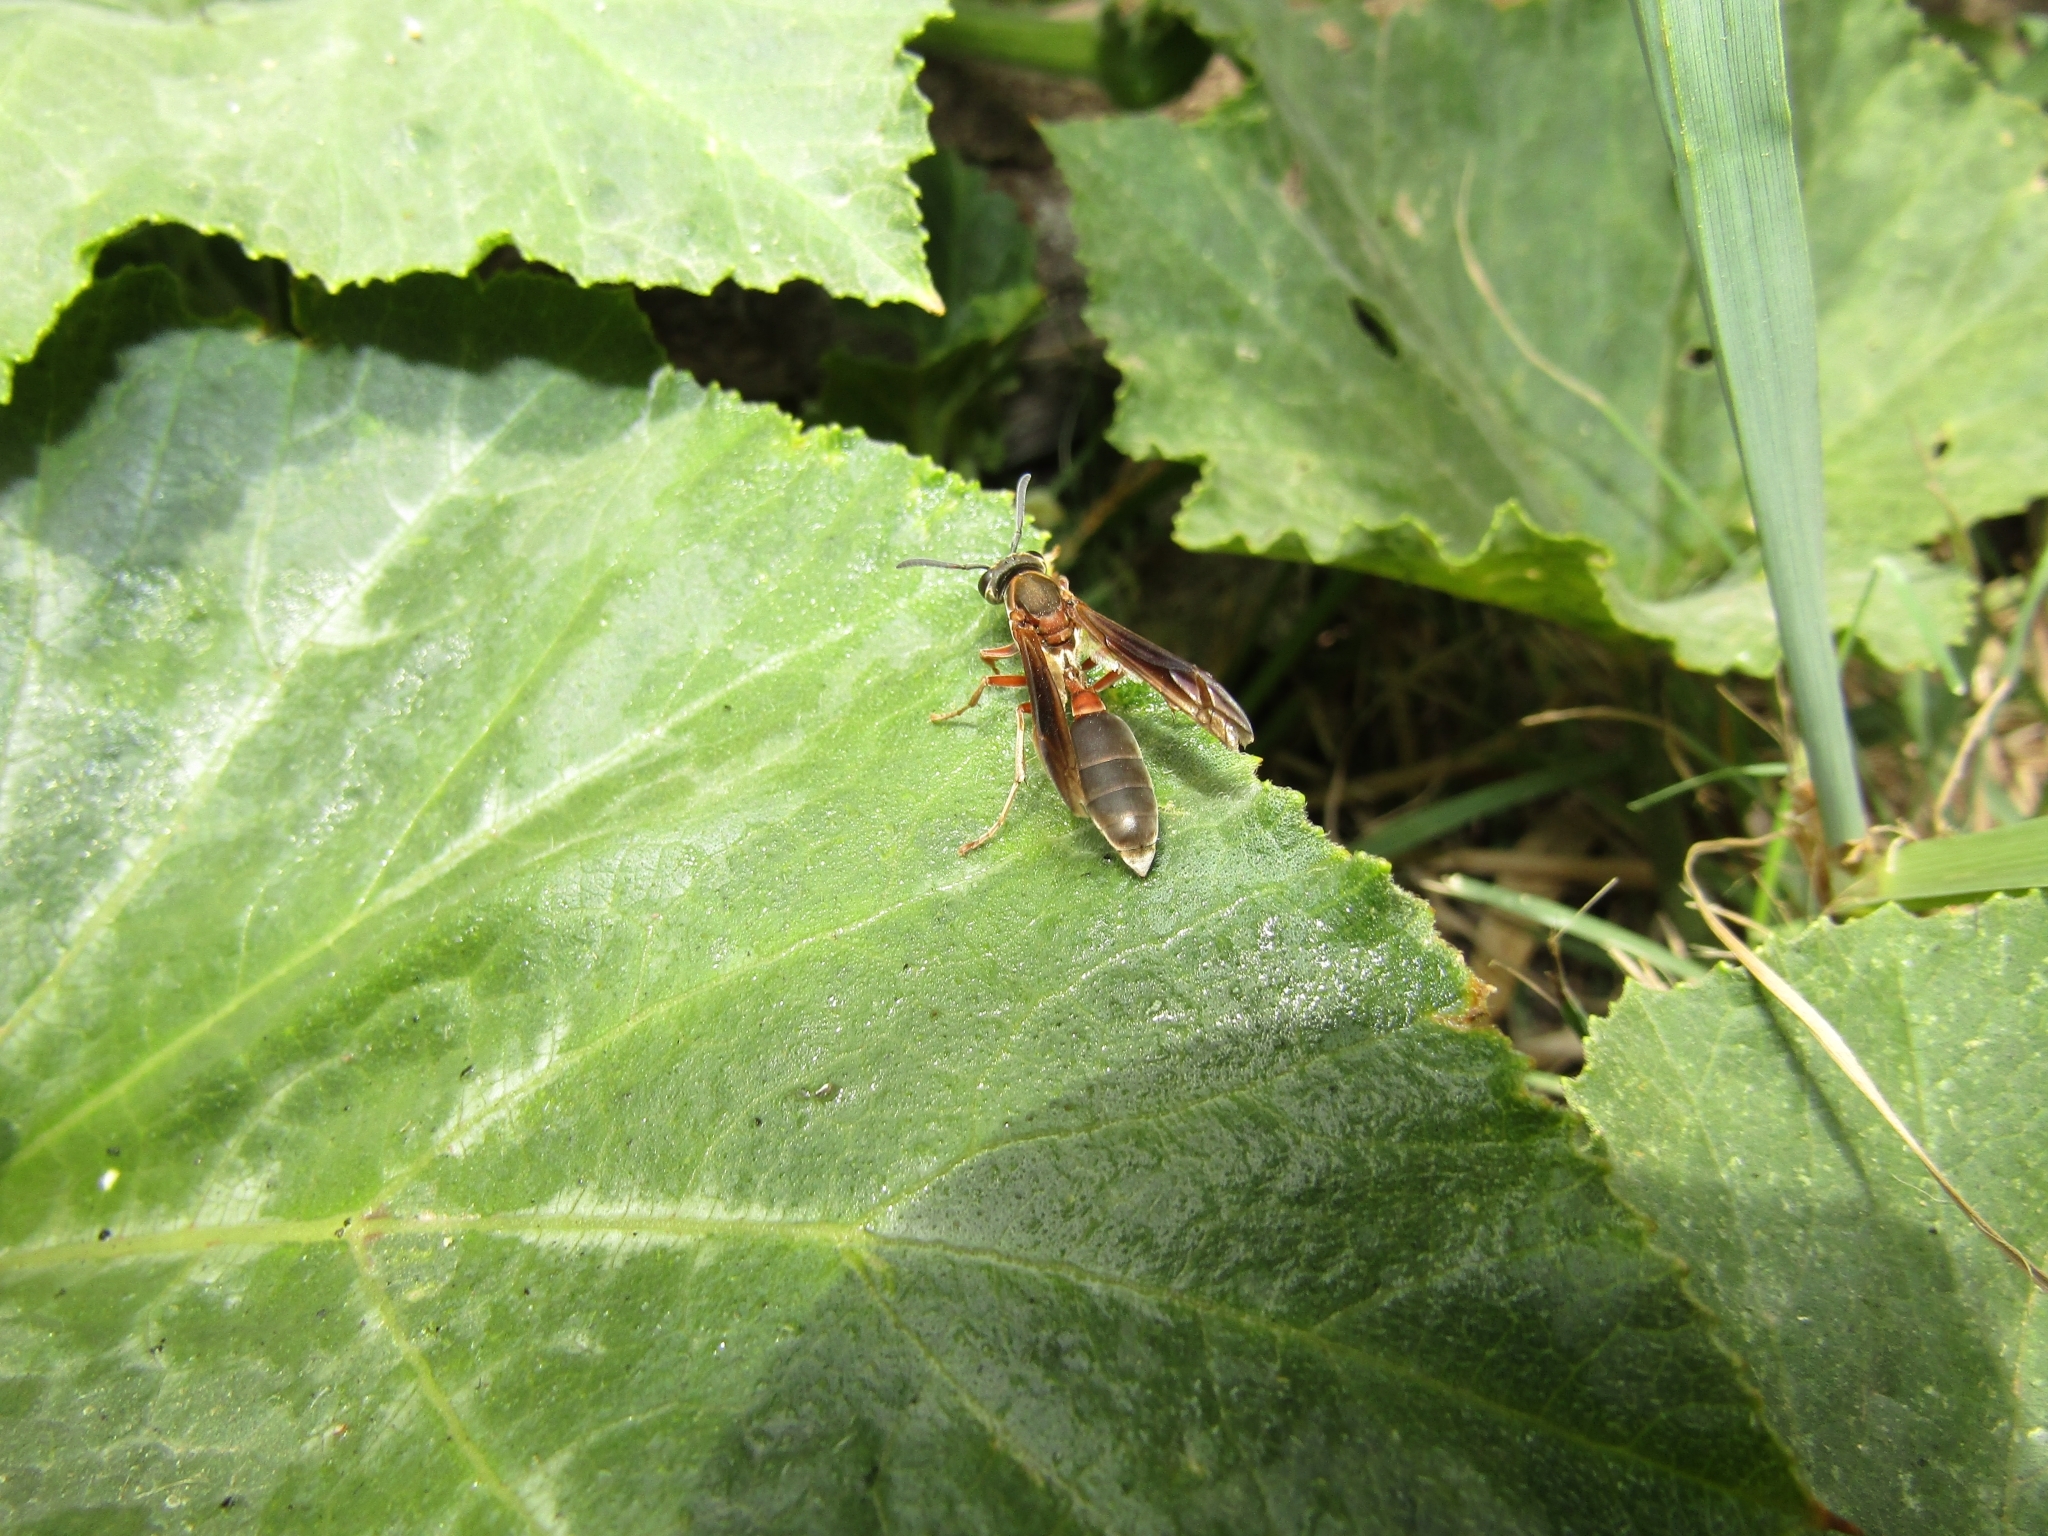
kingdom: Animalia
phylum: Arthropoda
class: Insecta
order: Hymenoptera
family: Eumenidae
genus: Polybia
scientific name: Polybia sericea
